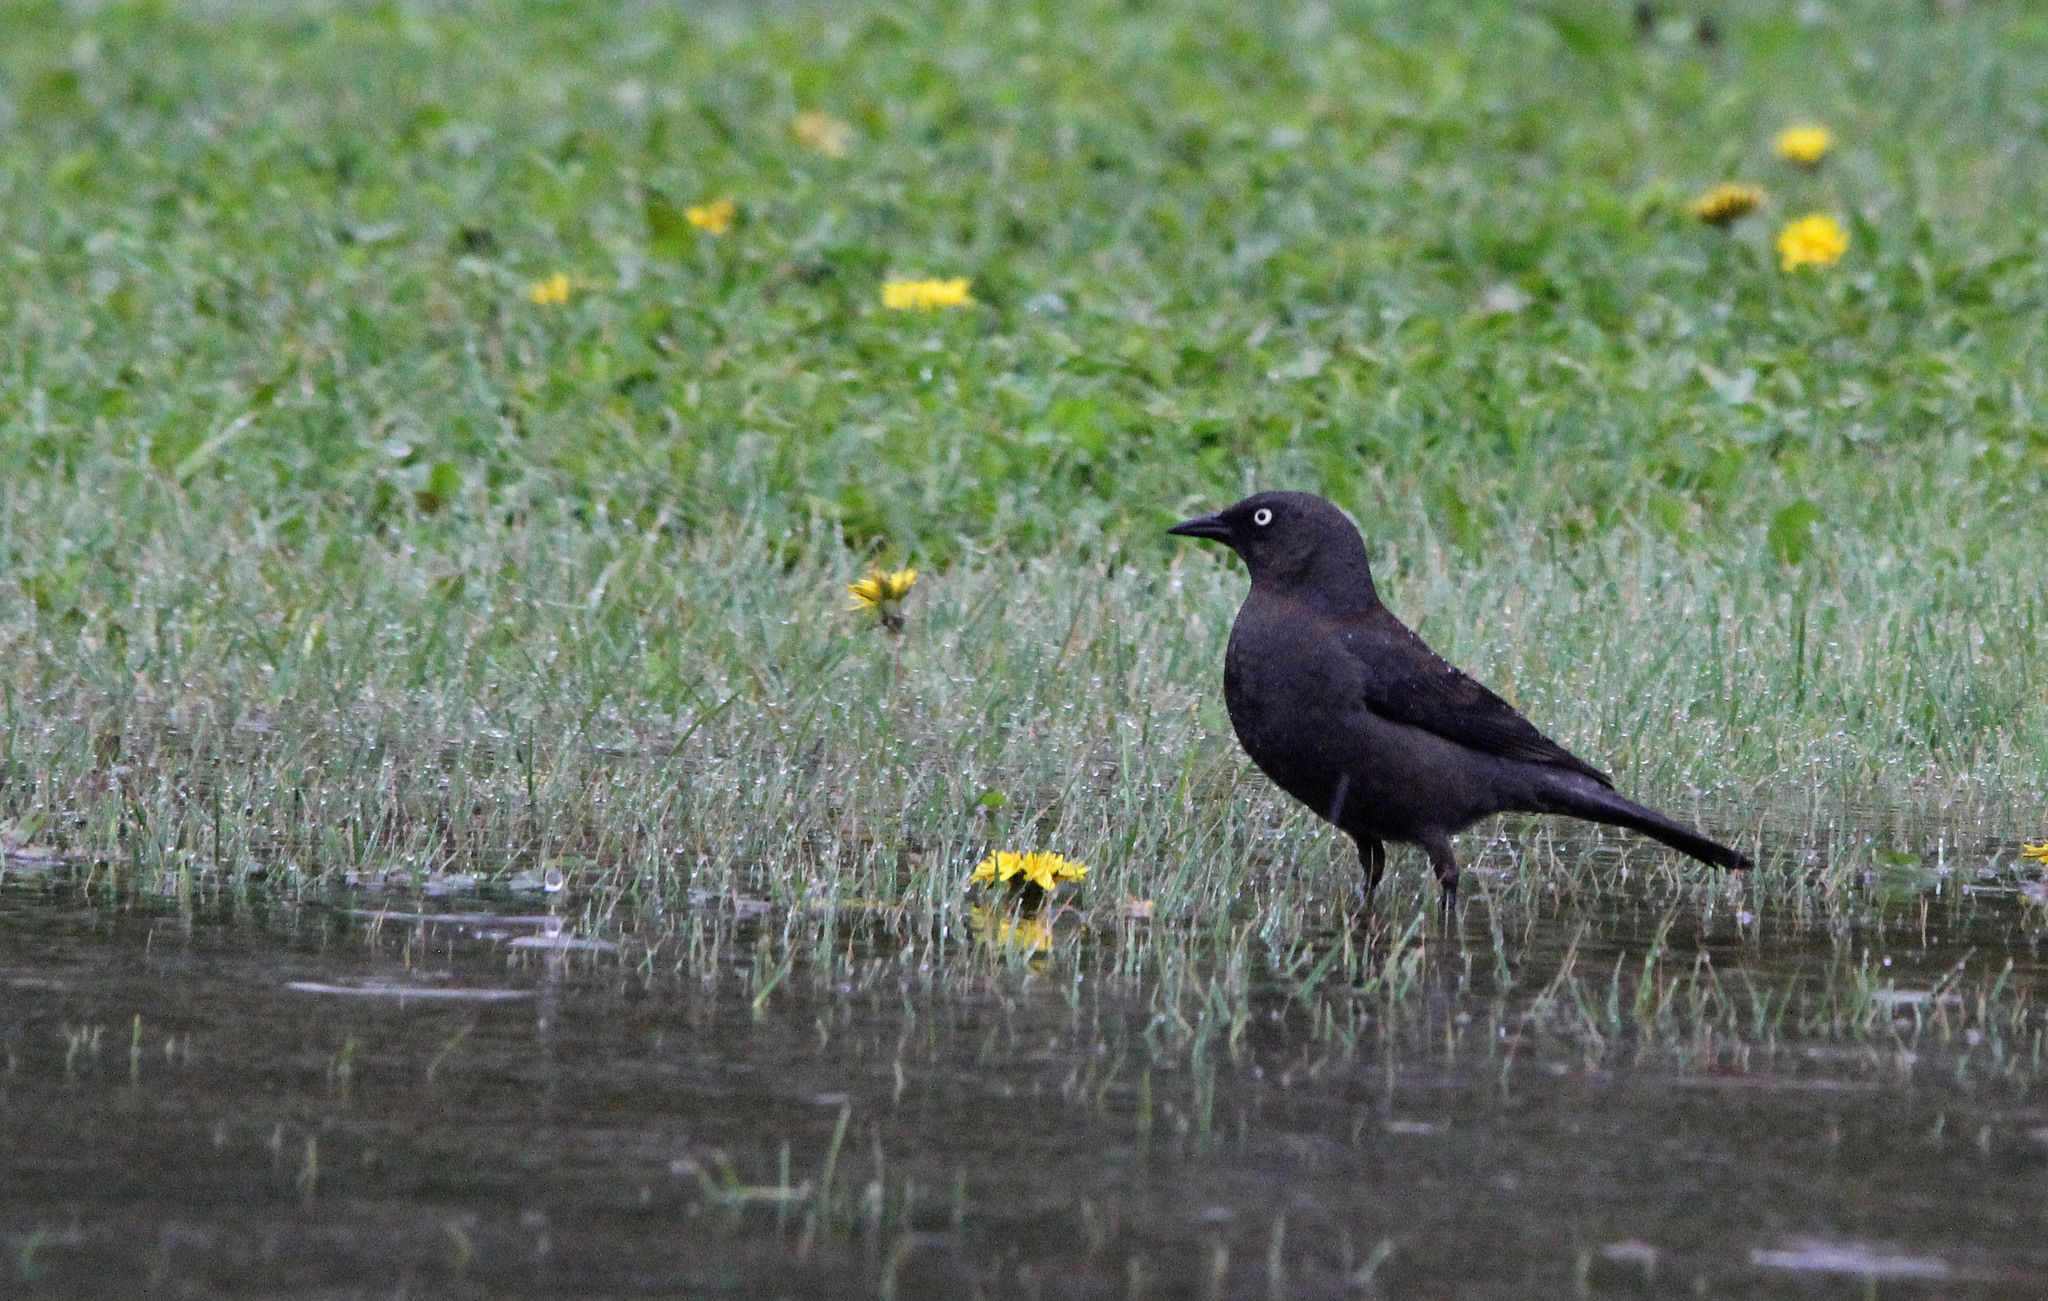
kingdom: Animalia
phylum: Chordata
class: Aves
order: Passeriformes
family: Icteridae
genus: Euphagus
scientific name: Euphagus carolinus
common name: Rusty blackbird
